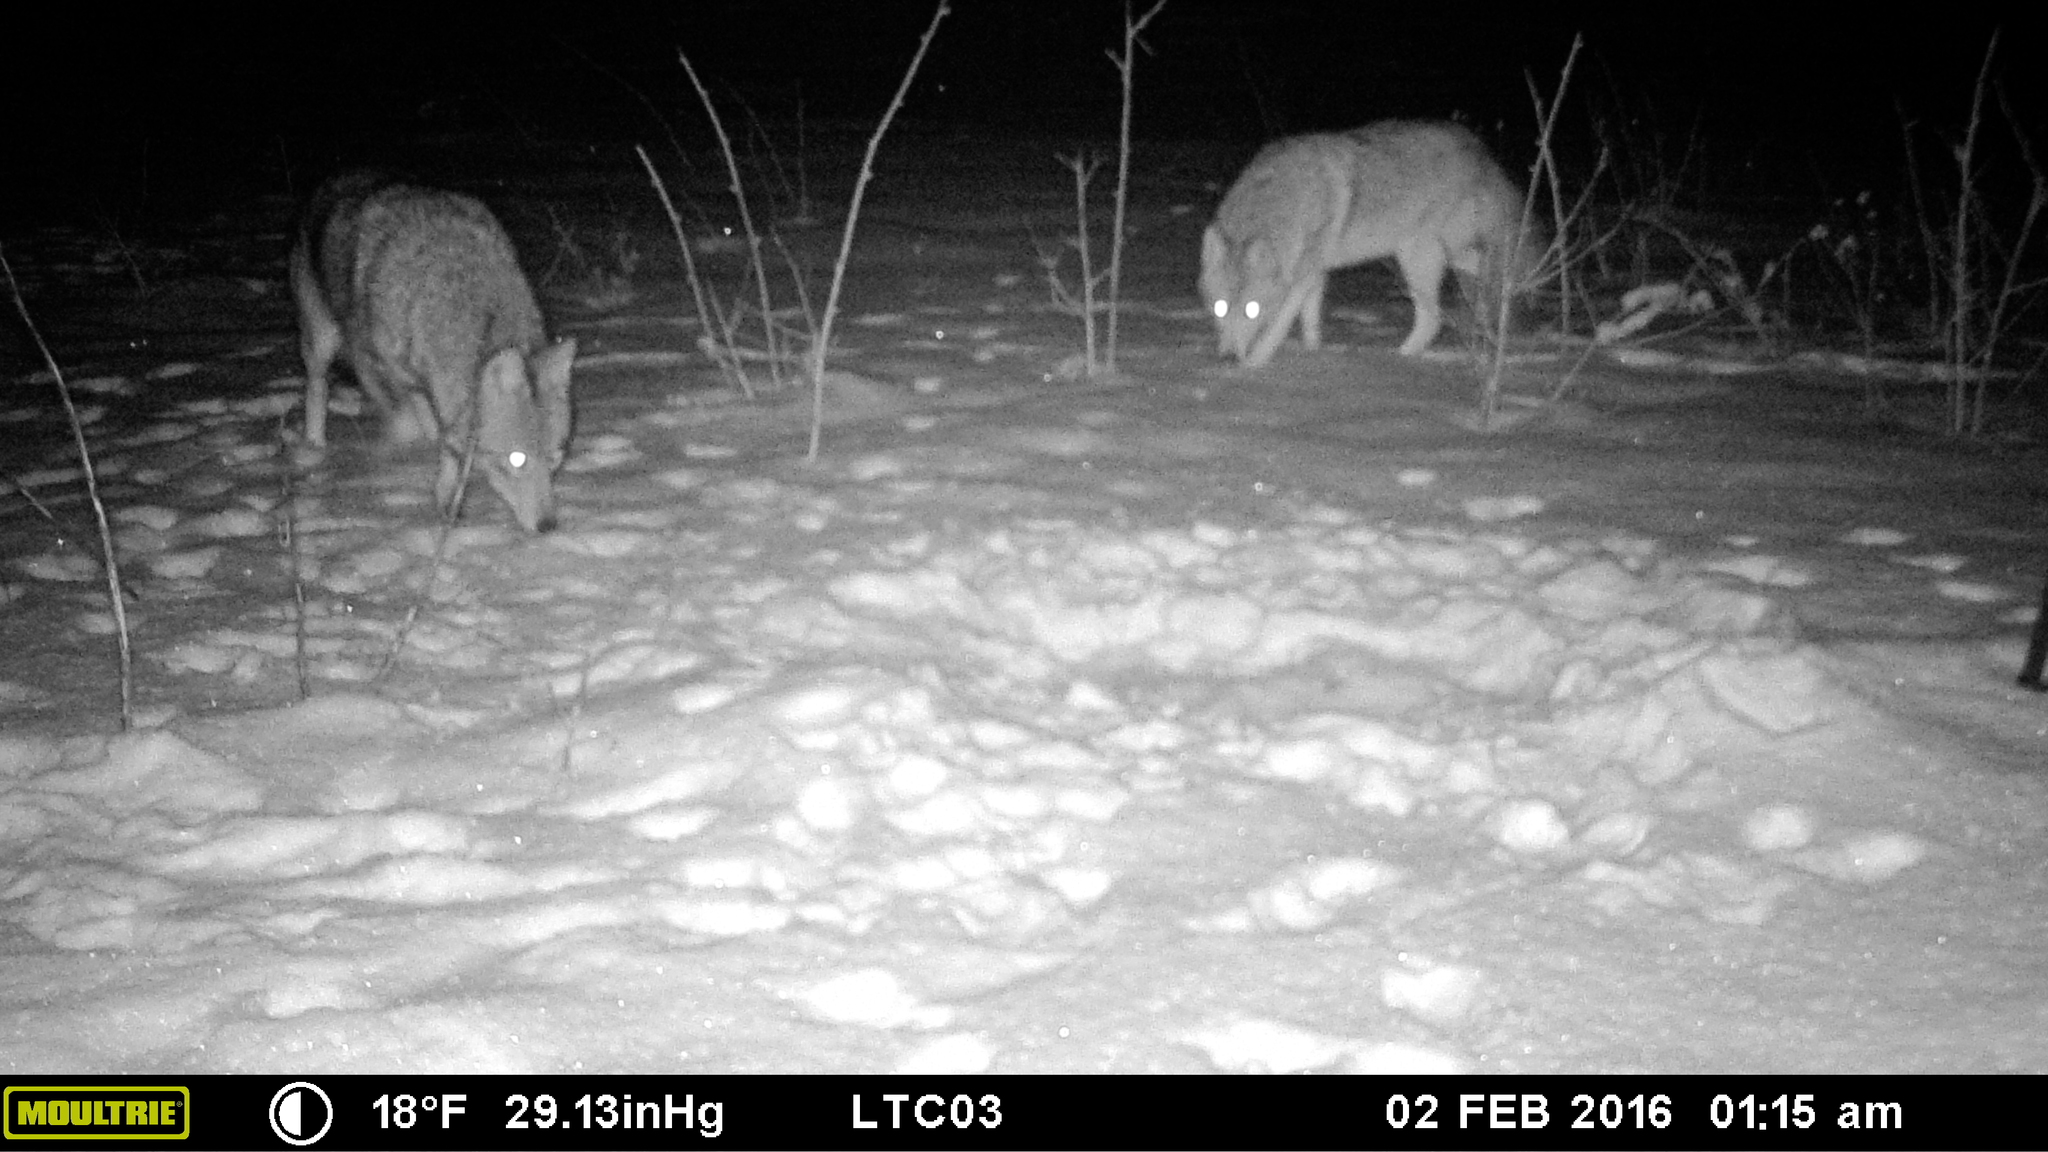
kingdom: Animalia
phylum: Chordata
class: Mammalia
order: Carnivora
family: Canidae
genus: Canis
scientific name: Canis latrans
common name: Coyote
